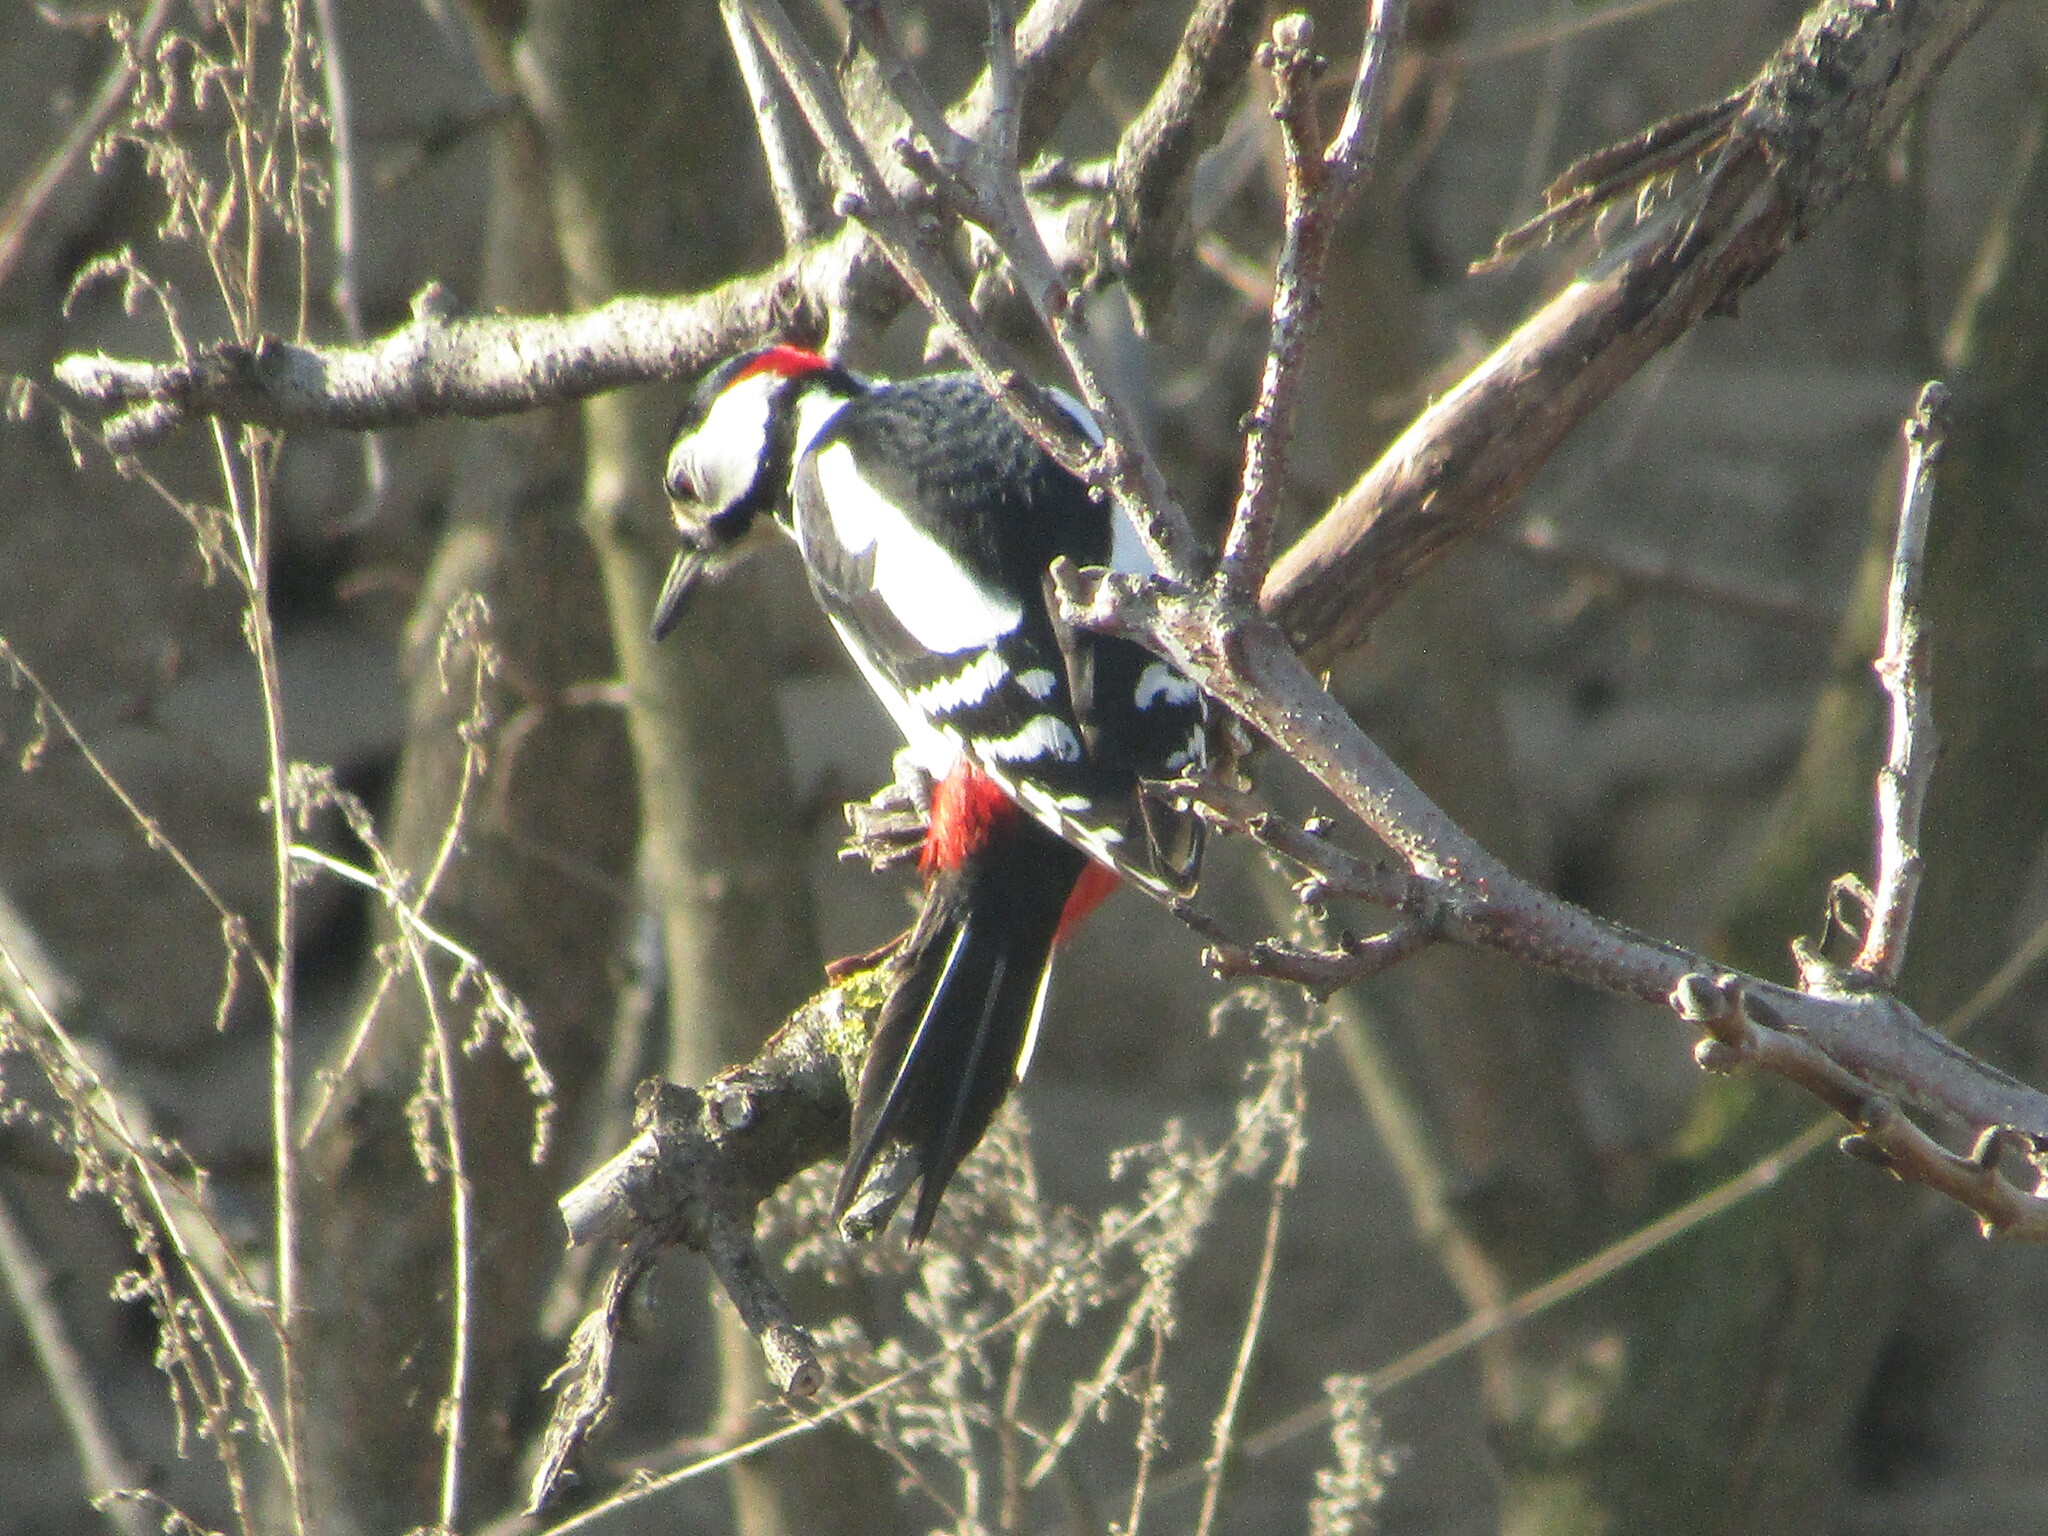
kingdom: Animalia
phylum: Chordata
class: Aves
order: Piciformes
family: Picidae
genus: Dendrocopos
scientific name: Dendrocopos major
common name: Great spotted woodpecker
